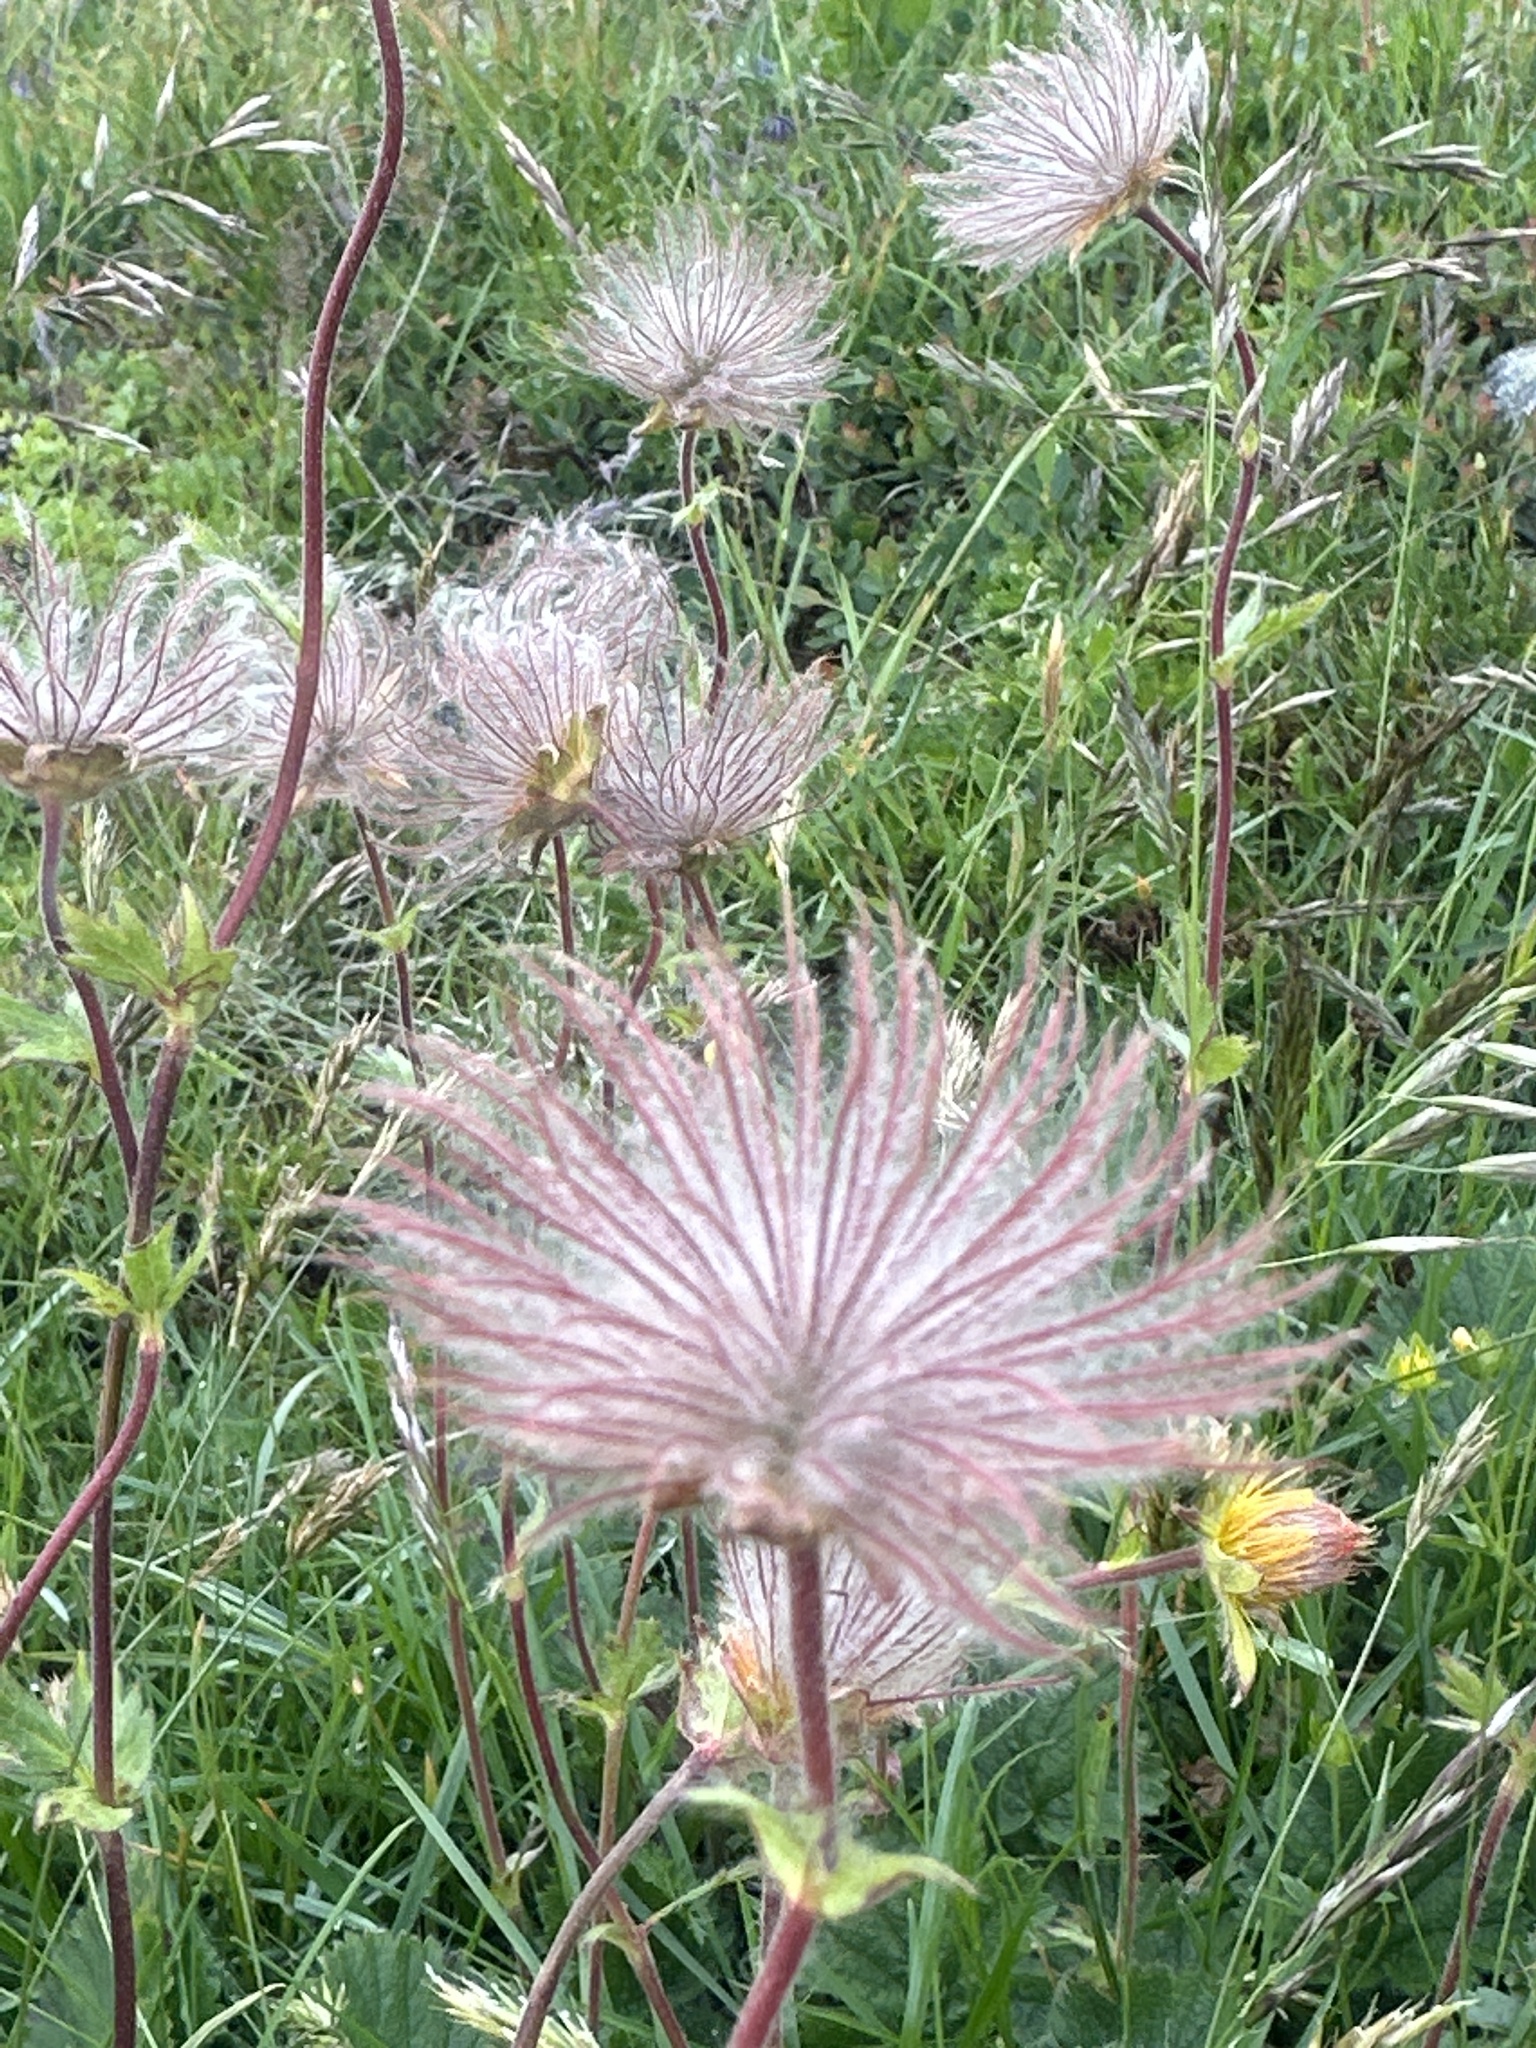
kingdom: Plantae
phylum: Tracheophyta
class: Magnoliopsida
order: Rosales
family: Rosaceae
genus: Geum
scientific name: Geum montanum
